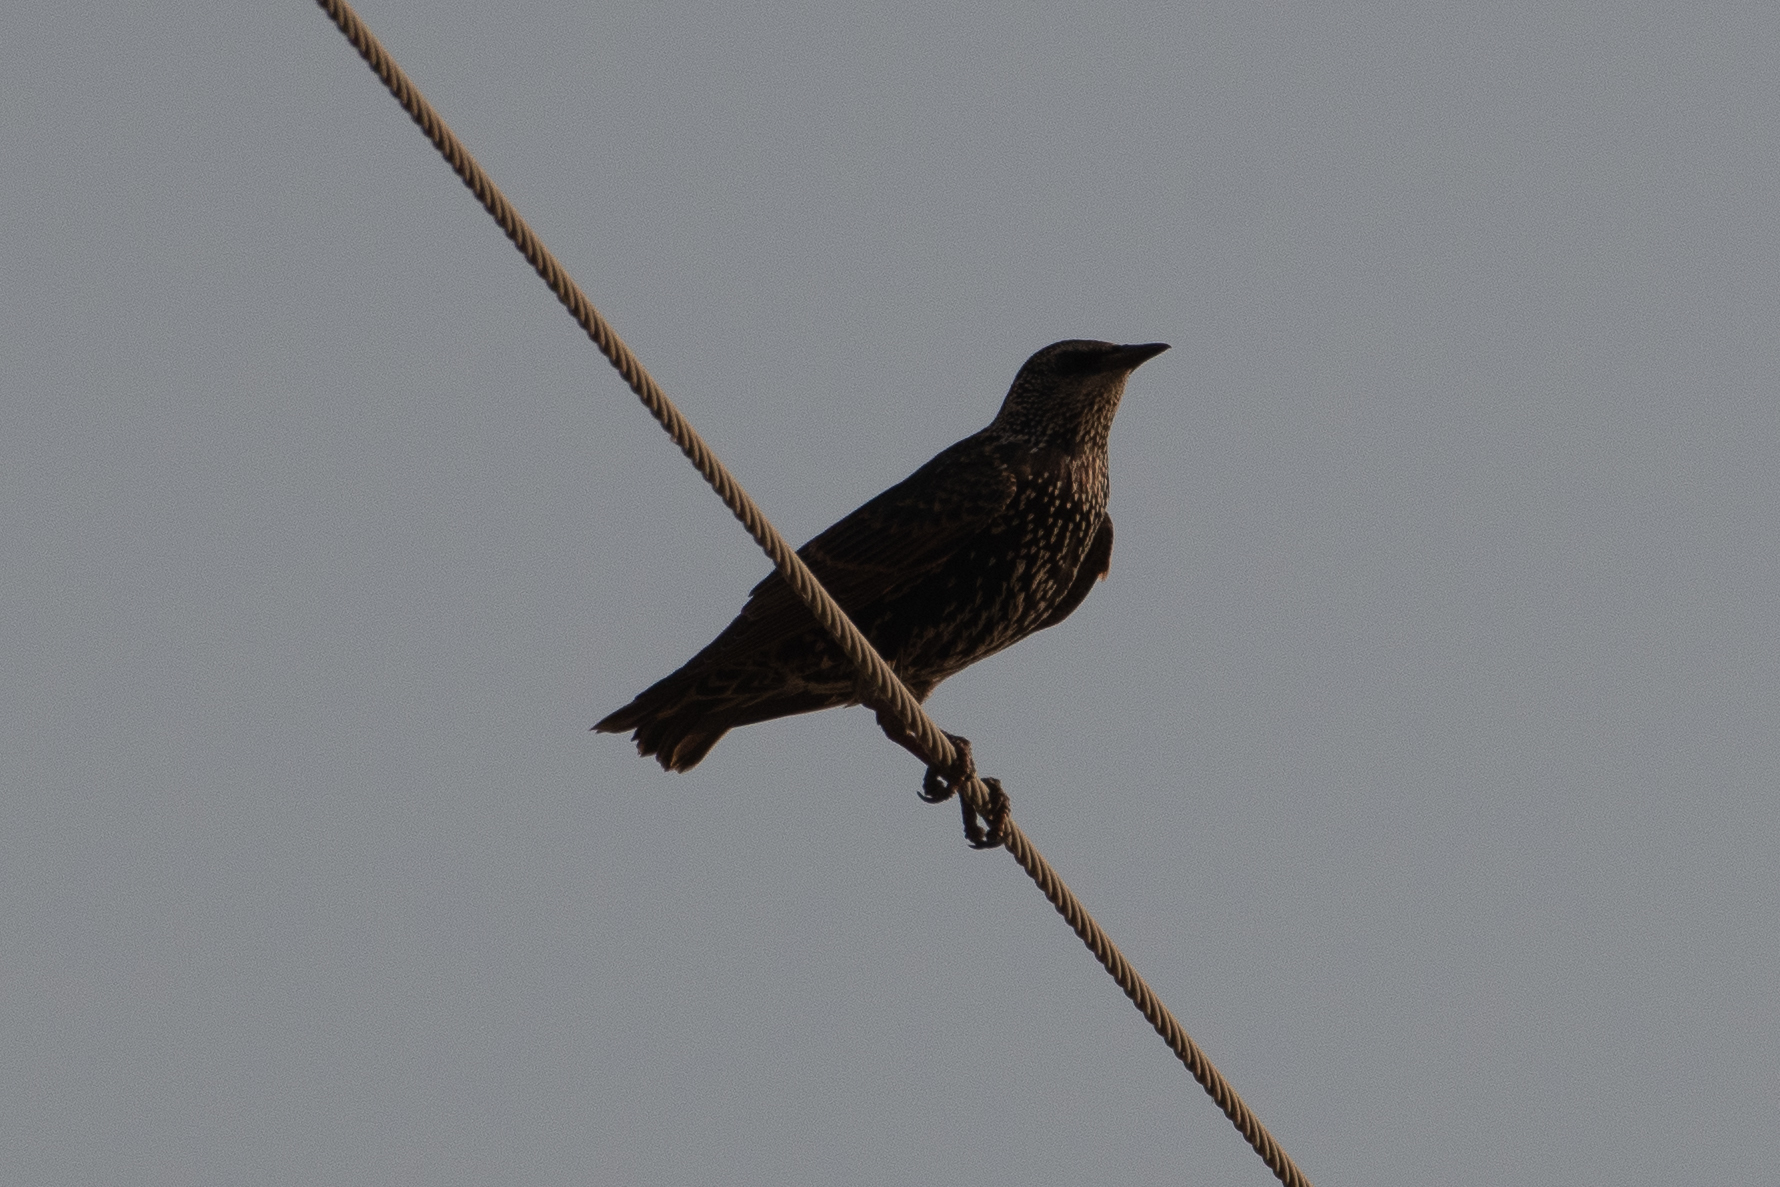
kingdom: Animalia
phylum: Chordata
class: Aves
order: Passeriformes
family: Sturnidae
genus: Sturnus
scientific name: Sturnus vulgaris
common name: Common starling
